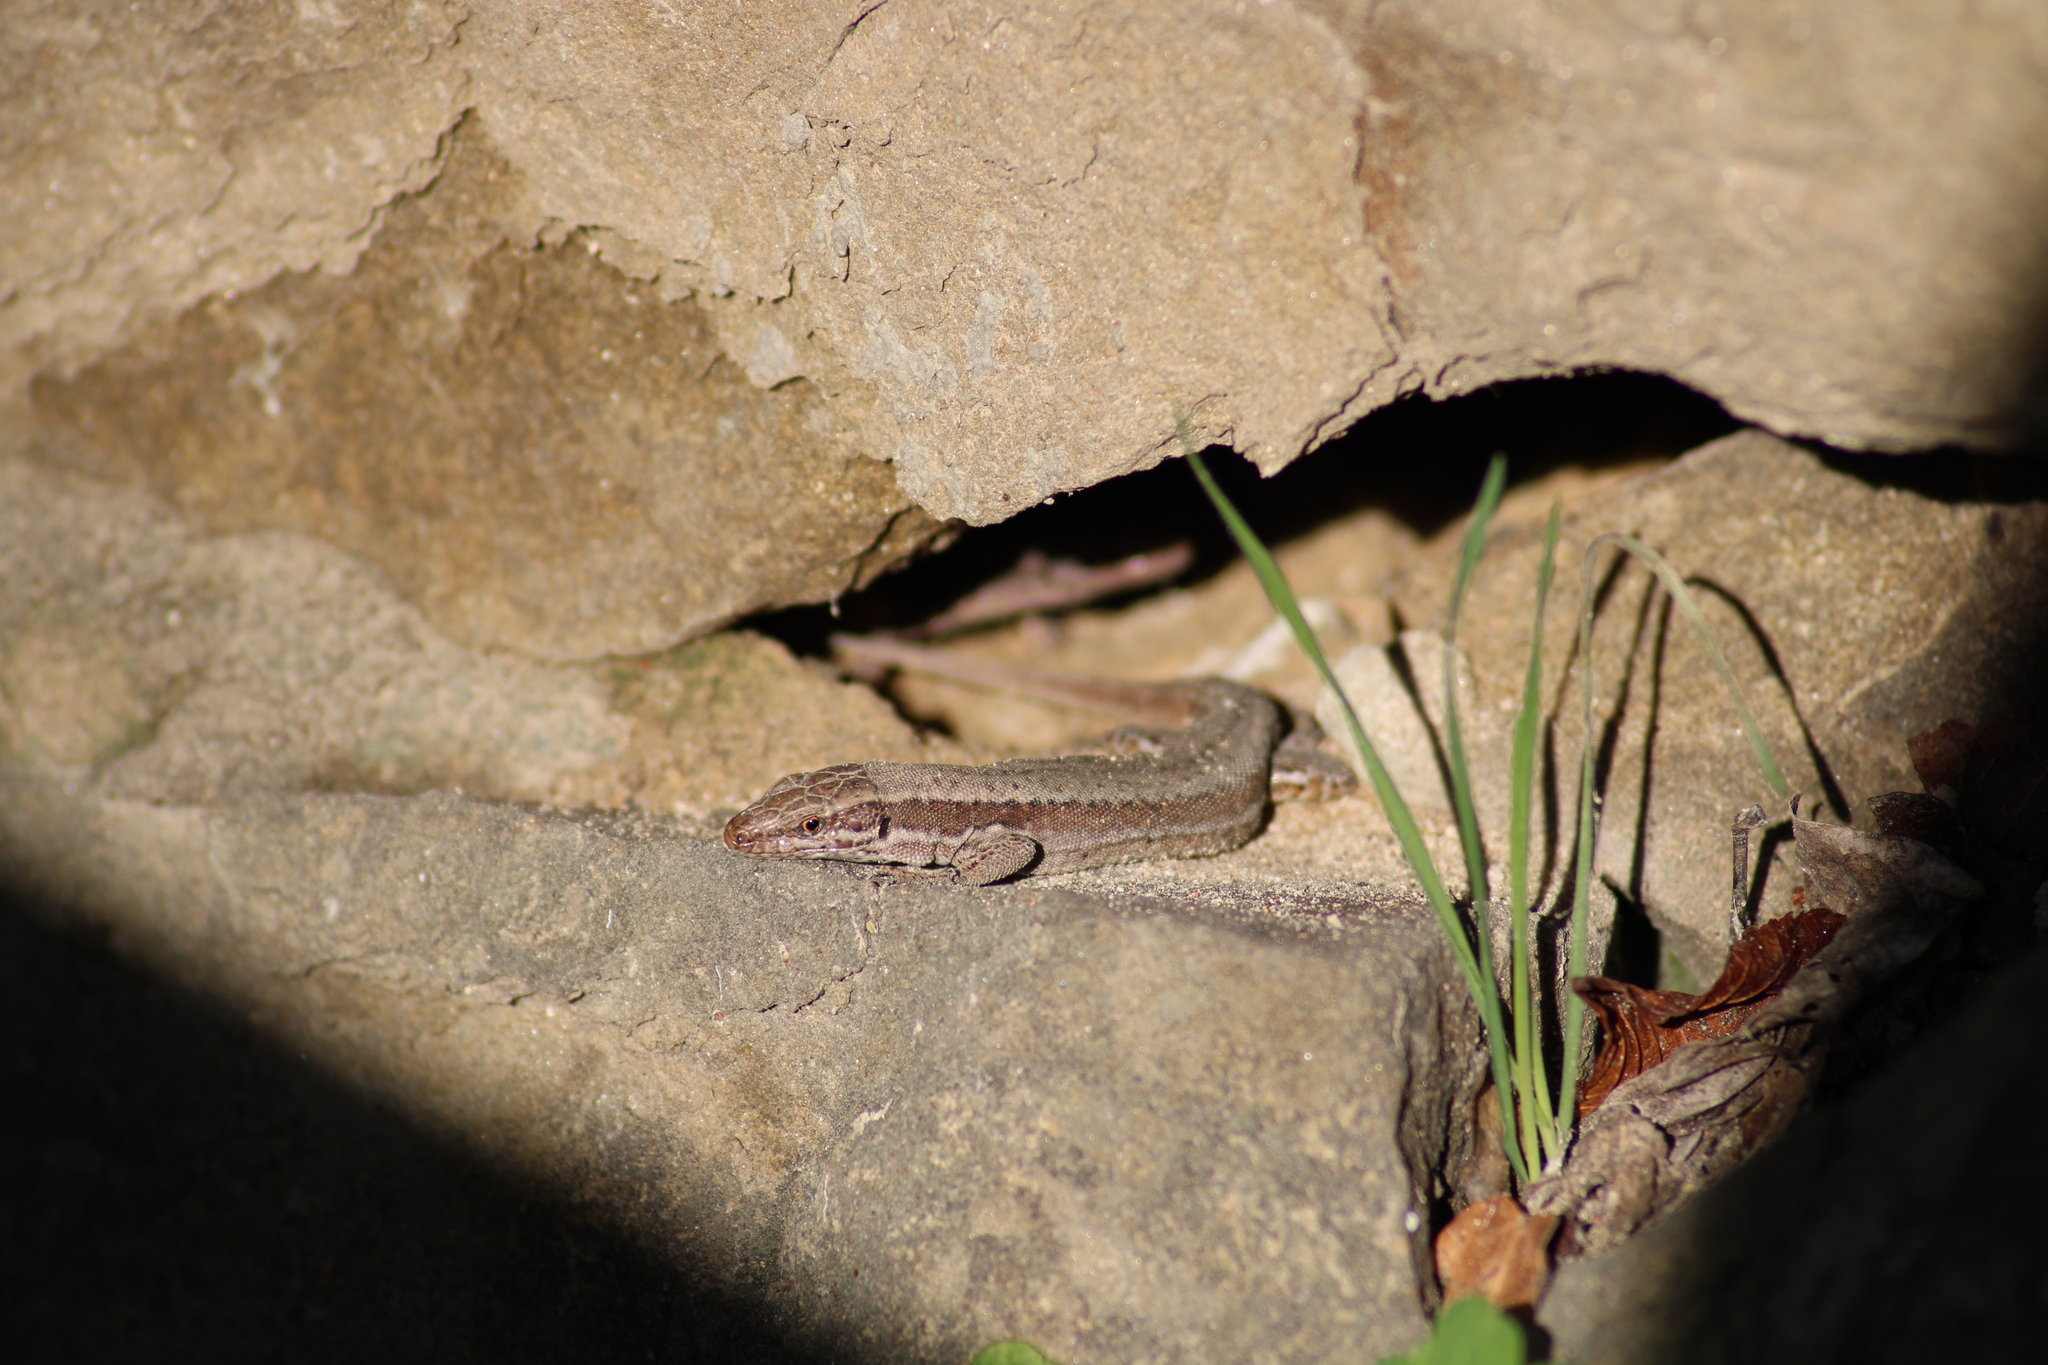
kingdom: Animalia
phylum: Chordata
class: Squamata
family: Lacertidae
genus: Podarcis
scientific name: Podarcis muralis
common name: Common wall lizard
